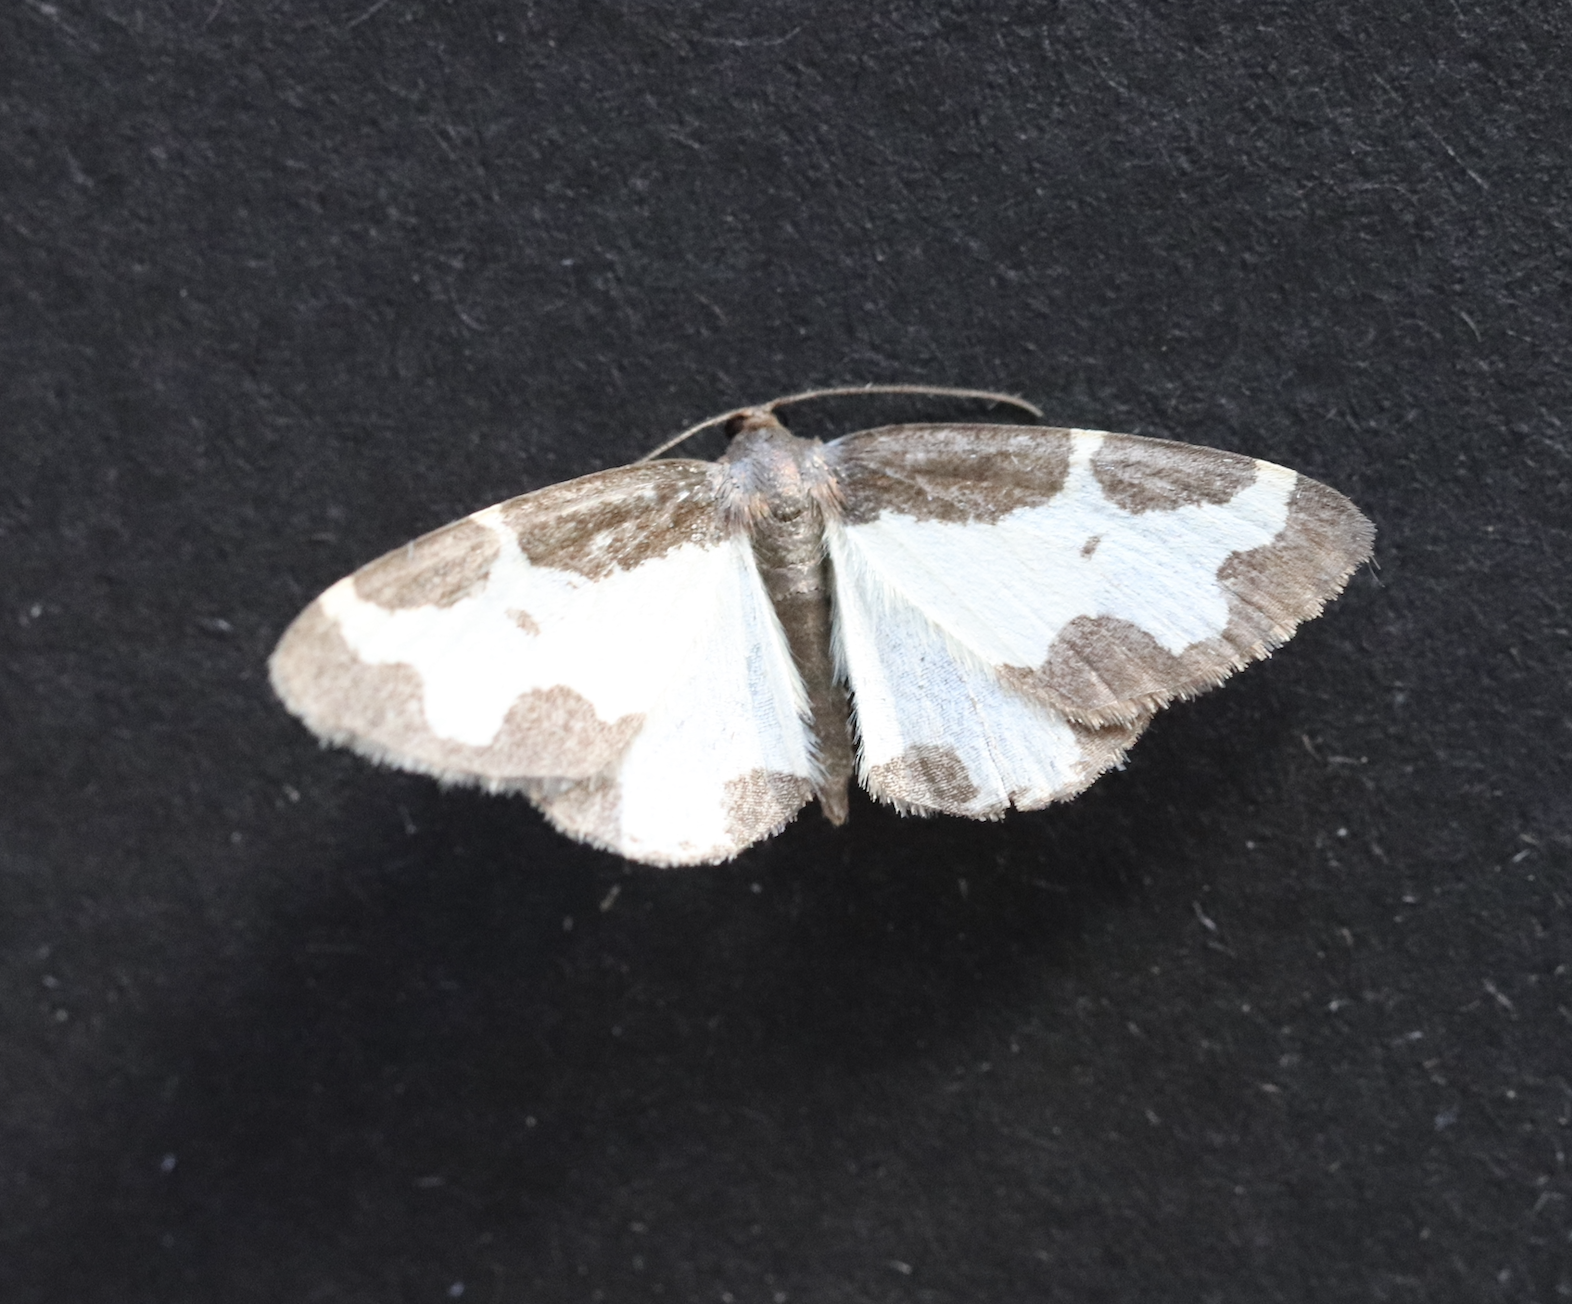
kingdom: Animalia
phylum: Arthropoda
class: Insecta
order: Lepidoptera
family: Geometridae
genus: Lomaspilis
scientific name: Lomaspilis marginata
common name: Clouded border
